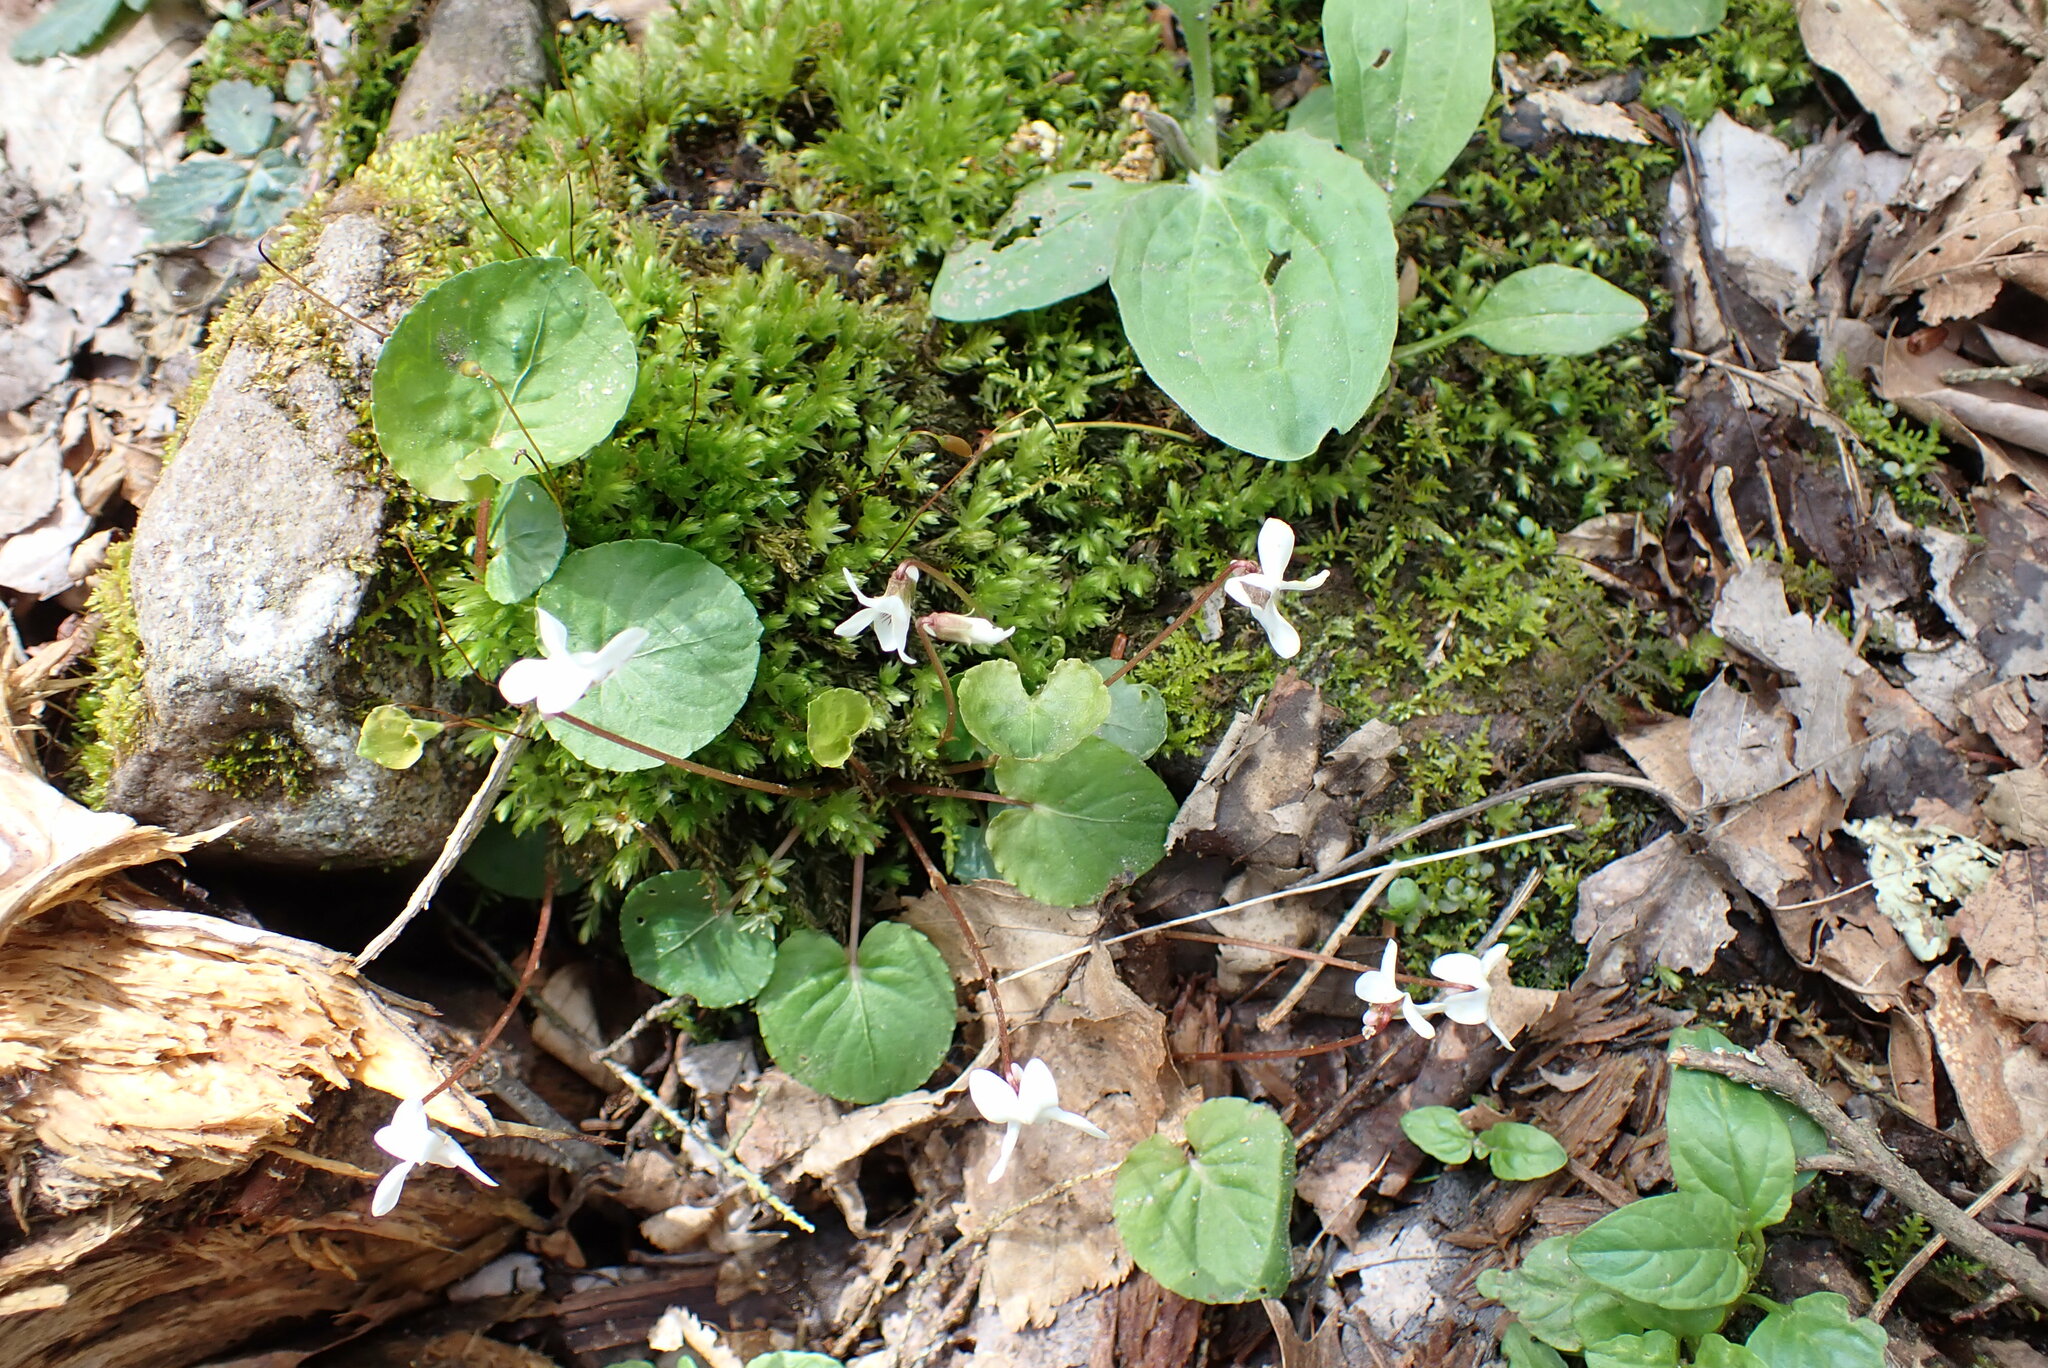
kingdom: Plantae
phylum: Tracheophyta
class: Magnoliopsida
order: Malpighiales
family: Violaceae
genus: Viola
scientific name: Viola blanda
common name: Sweet white violet
